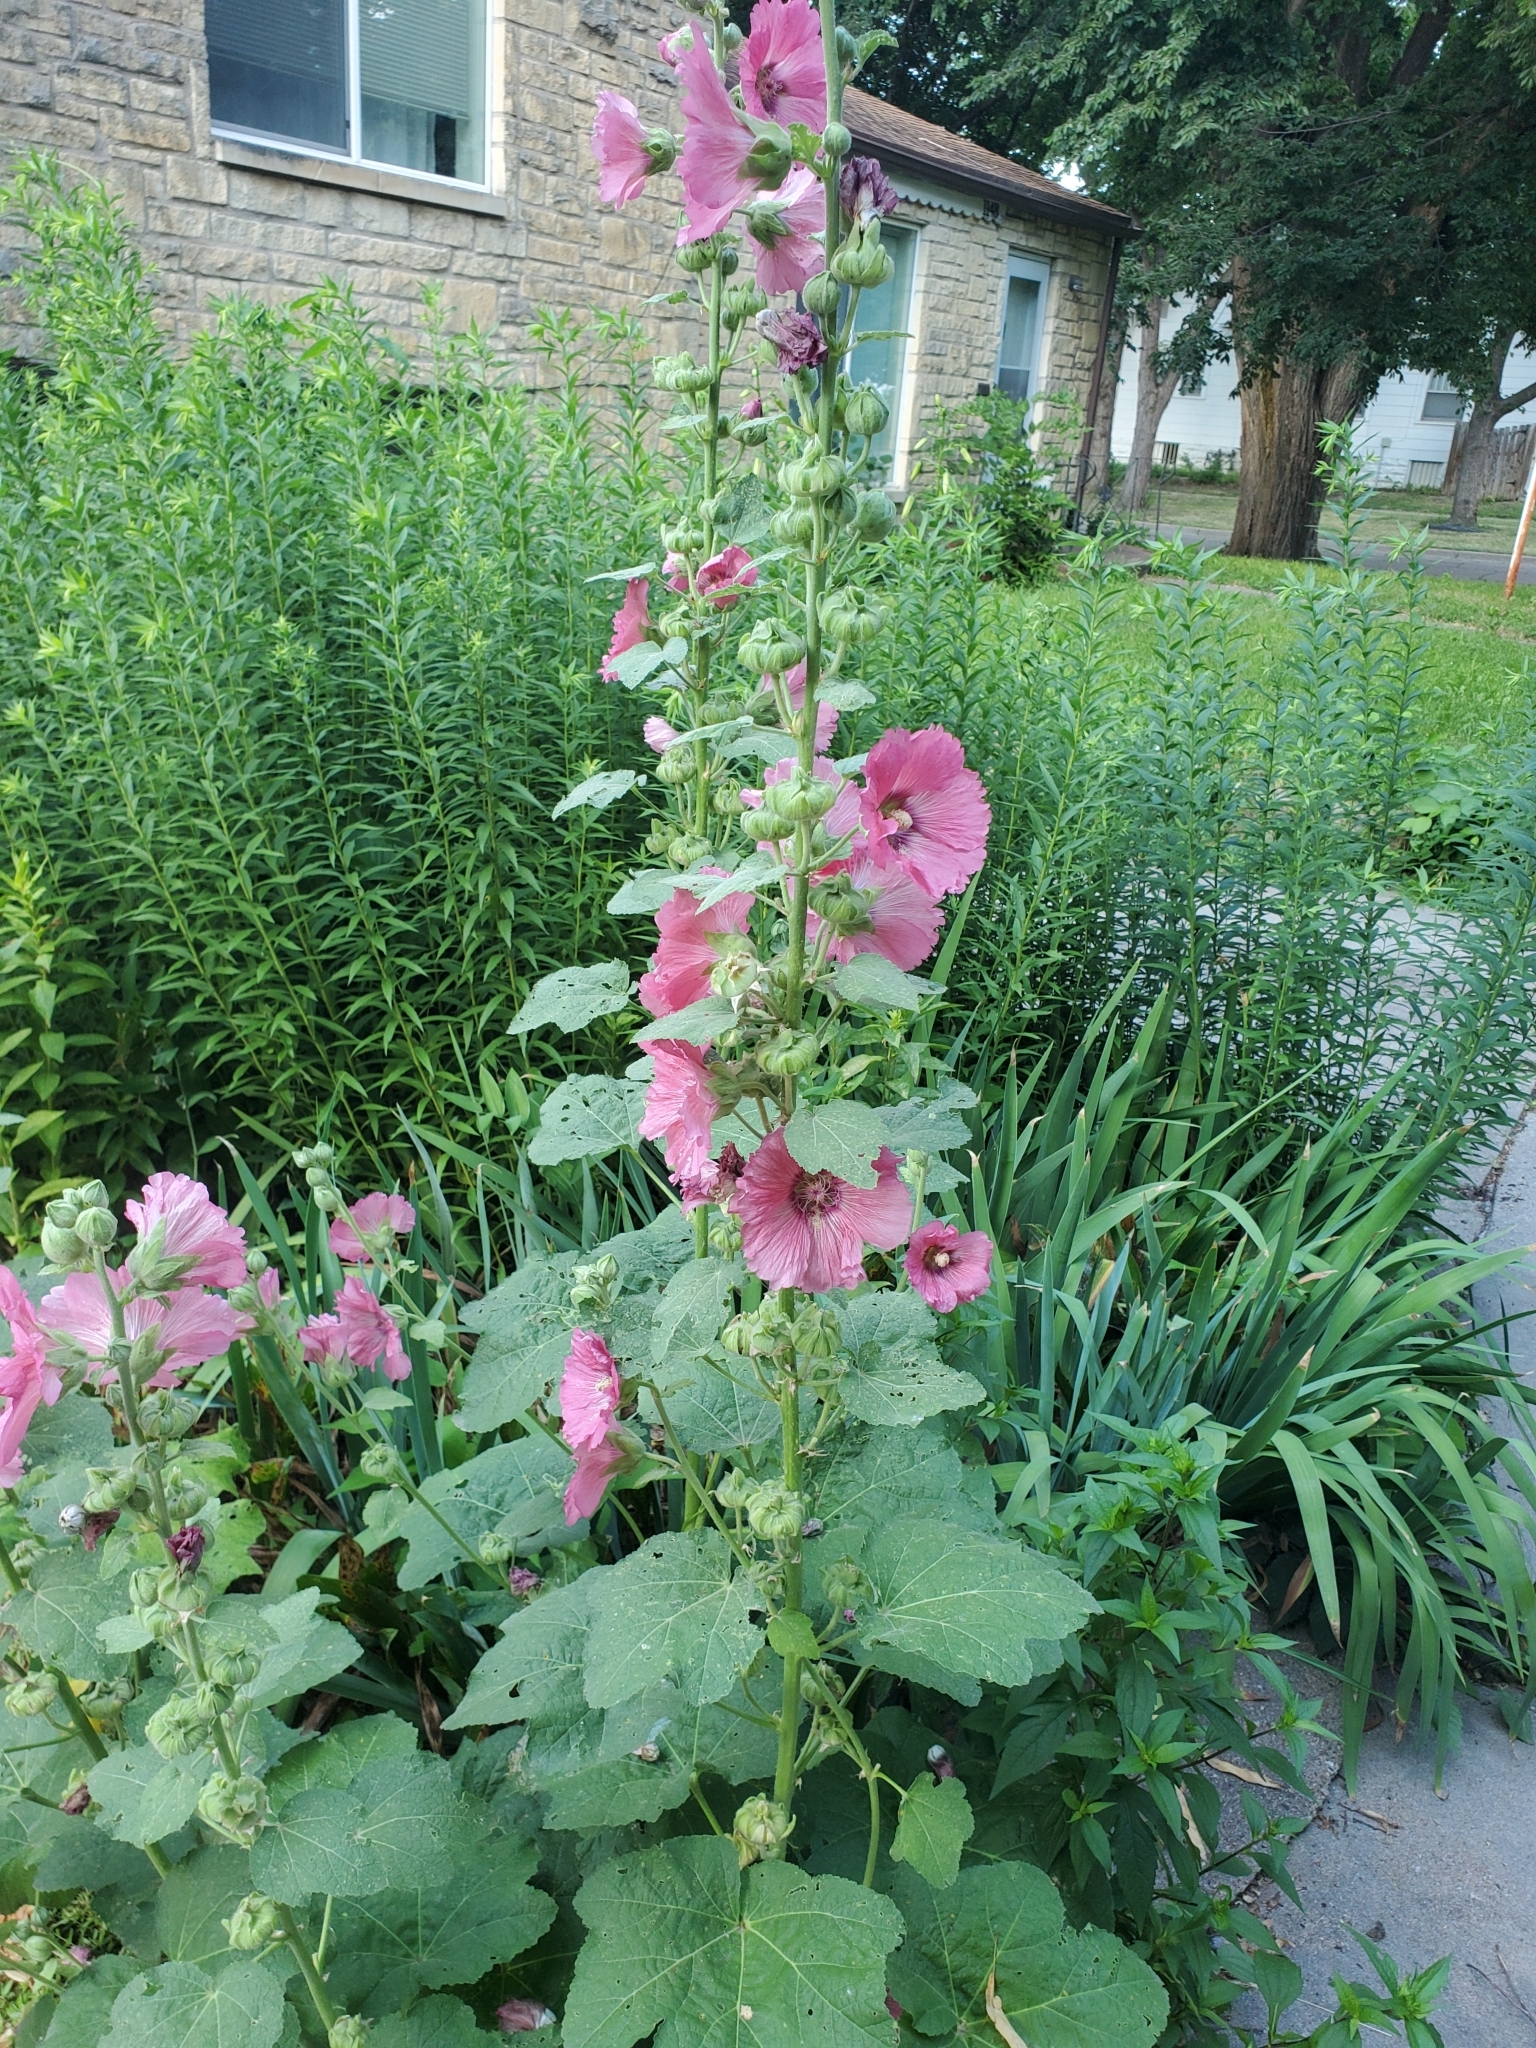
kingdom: Plantae
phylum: Tracheophyta
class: Magnoliopsida
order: Malvales
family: Malvaceae
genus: Alcea
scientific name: Alcea rosea
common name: Hollyhock
